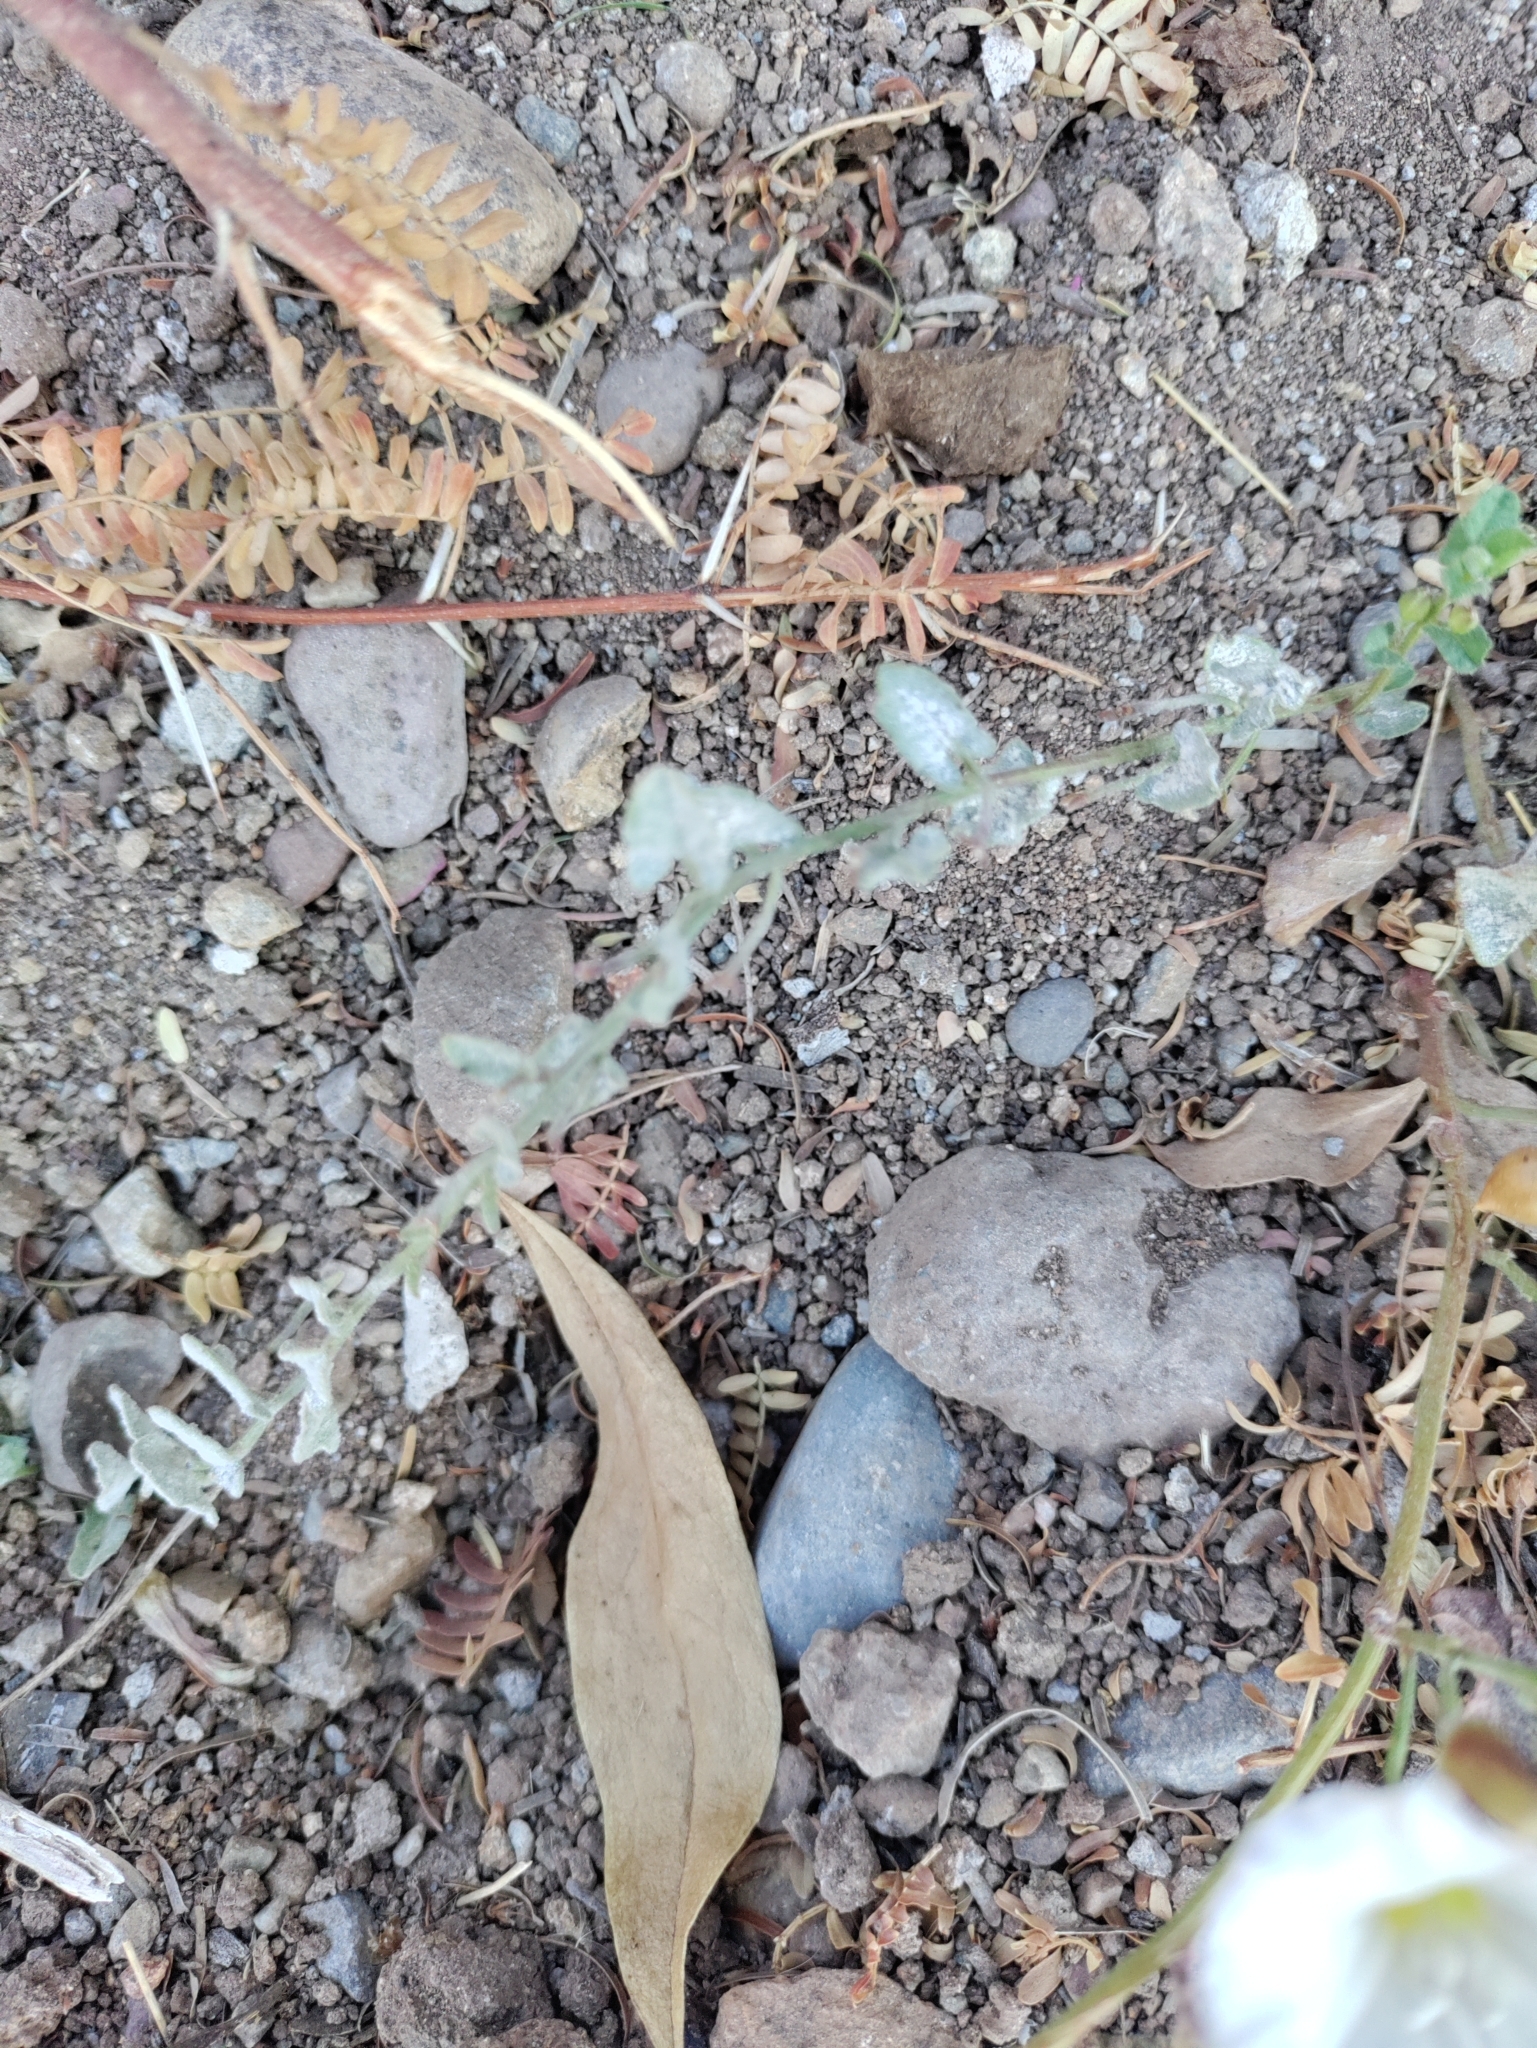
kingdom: Plantae
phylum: Tracheophyta
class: Magnoliopsida
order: Solanales
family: Convolvulaceae
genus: Convolvulus
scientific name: Convolvulus arvensis
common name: Field bindweed
